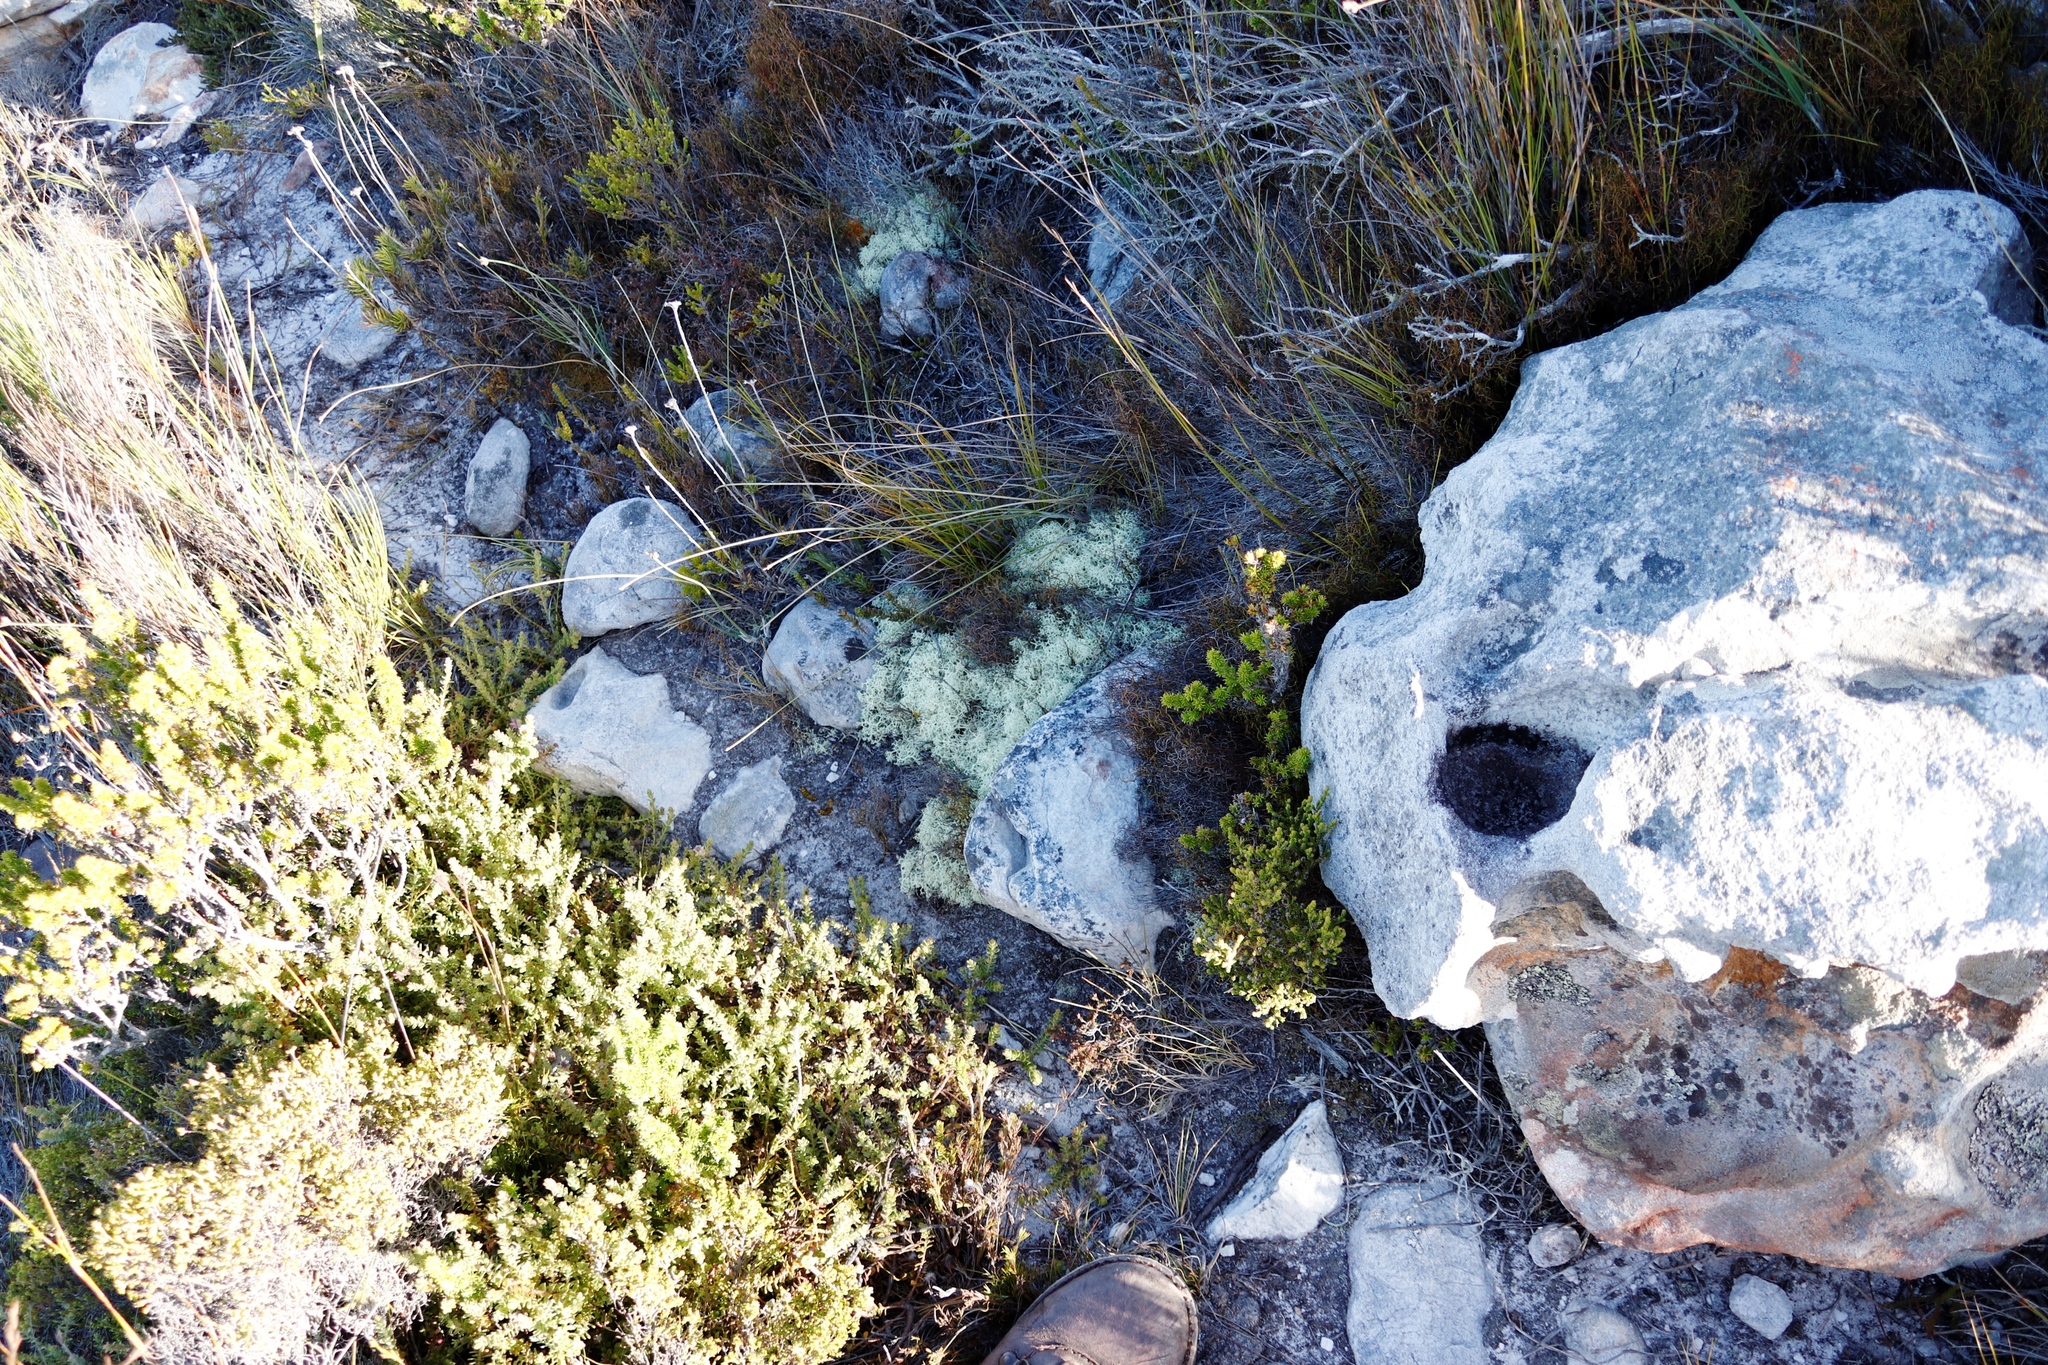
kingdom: Fungi
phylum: Ascomycota
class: Lecanoromycetes
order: Lecanorales
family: Cladoniaceae
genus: Cladonia
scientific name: Cladonia confusa
